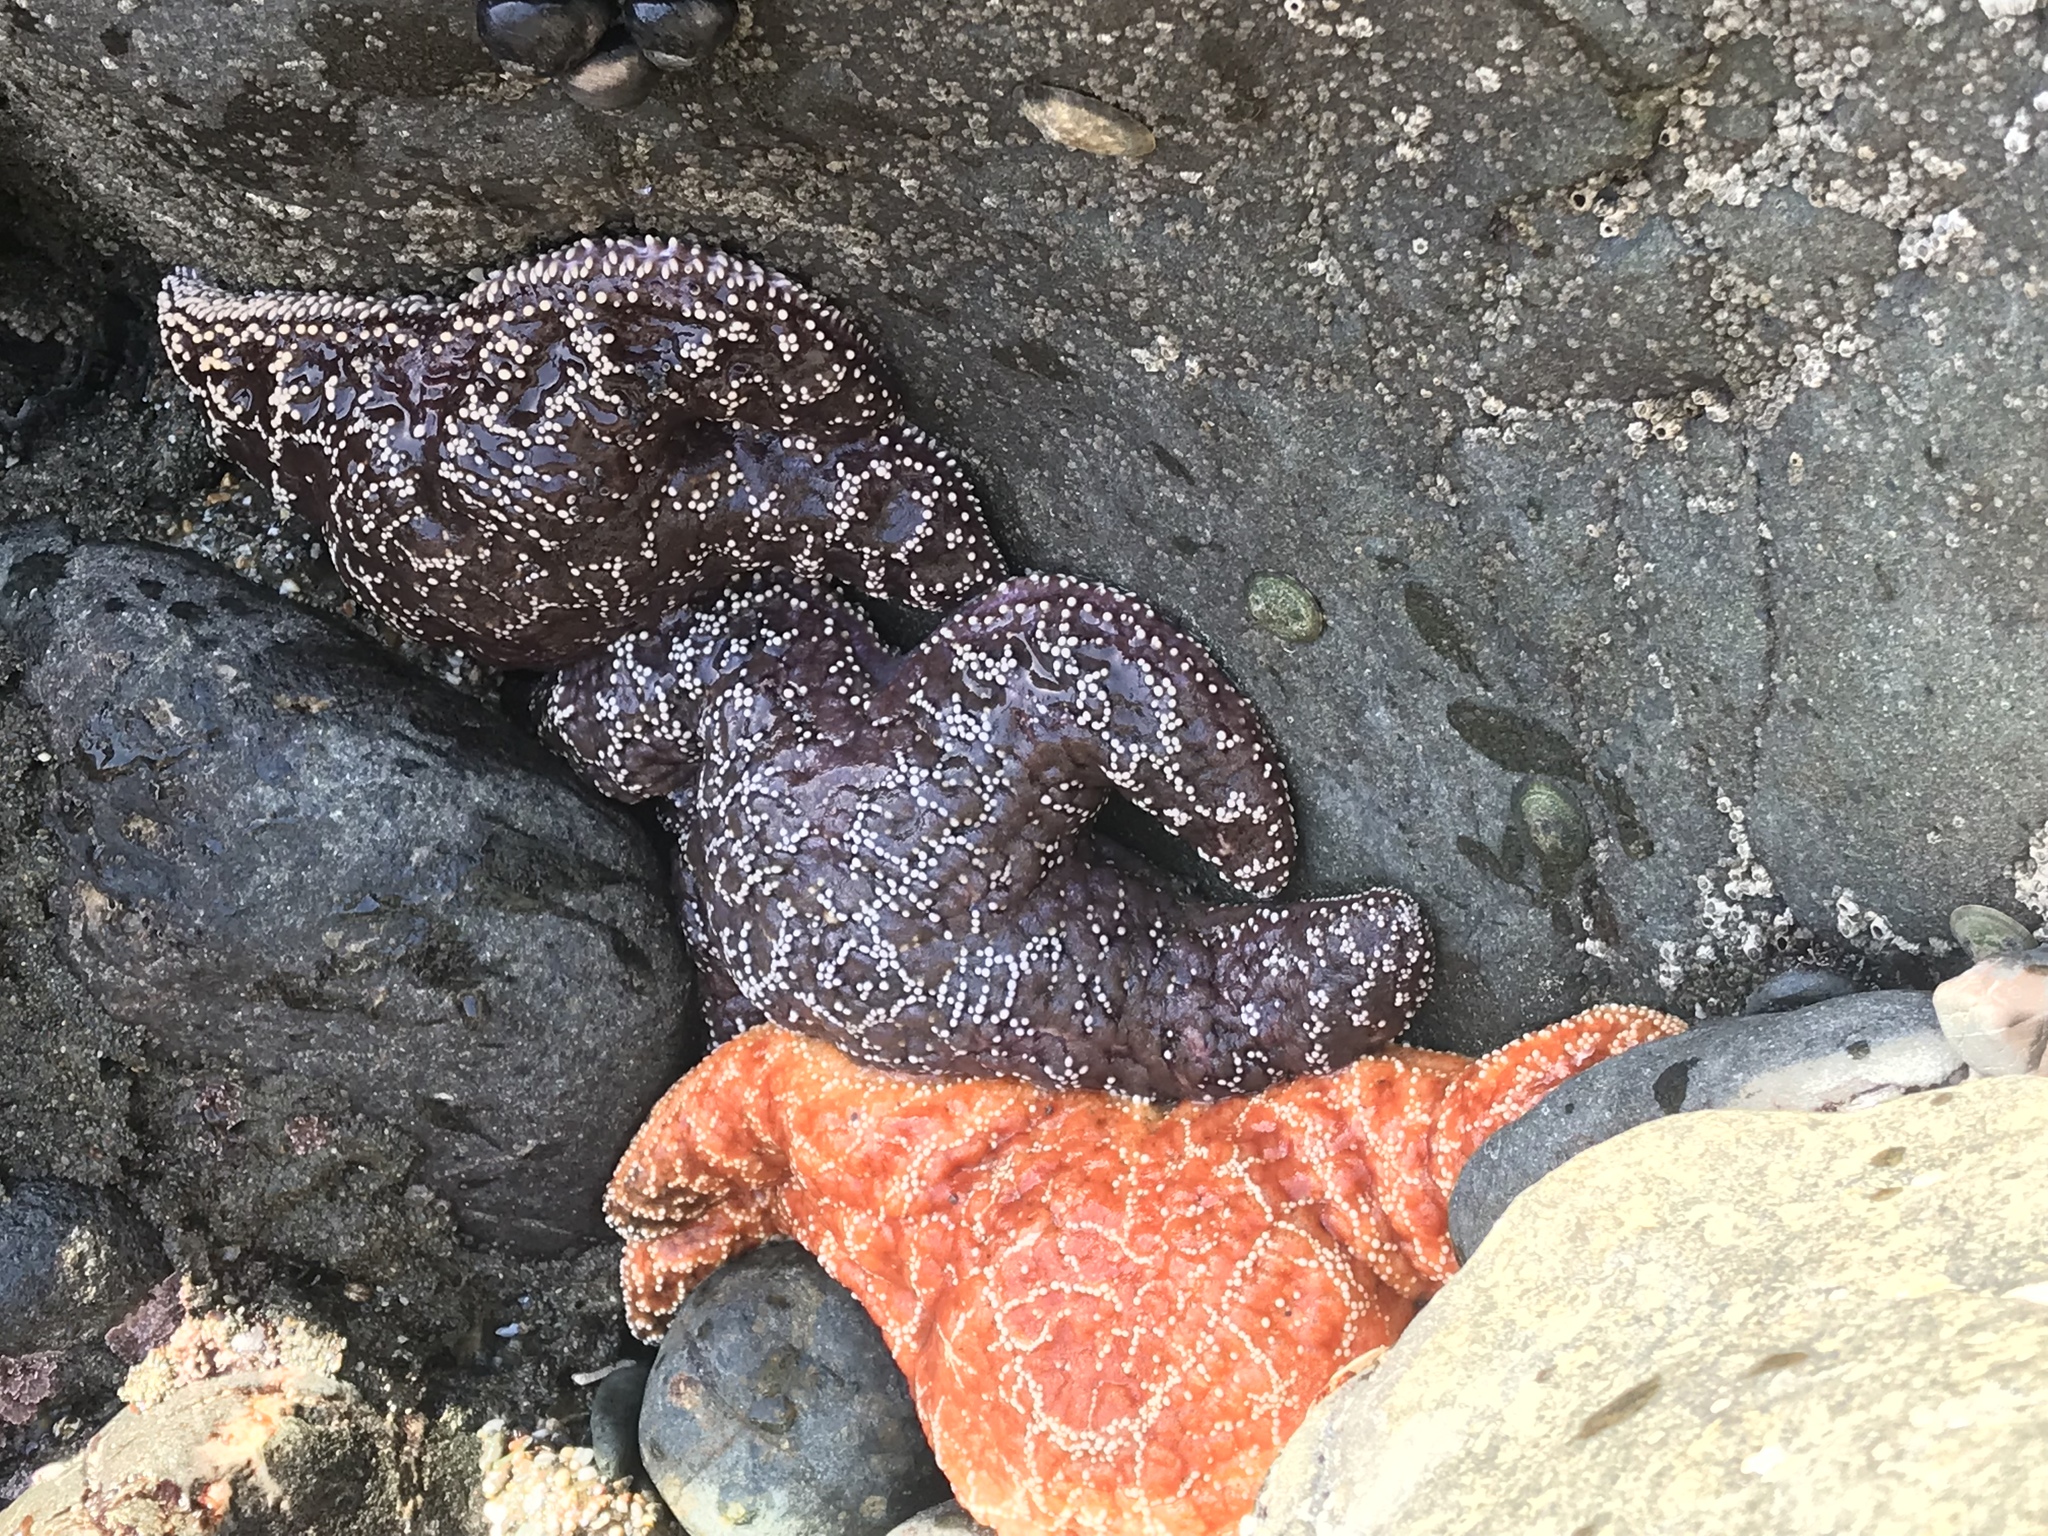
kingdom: Animalia
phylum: Echinodermata
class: Asteroidea
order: Forcipulatida
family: Asteriidae
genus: Pisaster
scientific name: Pisaster ochraceus
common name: Ochre stars
